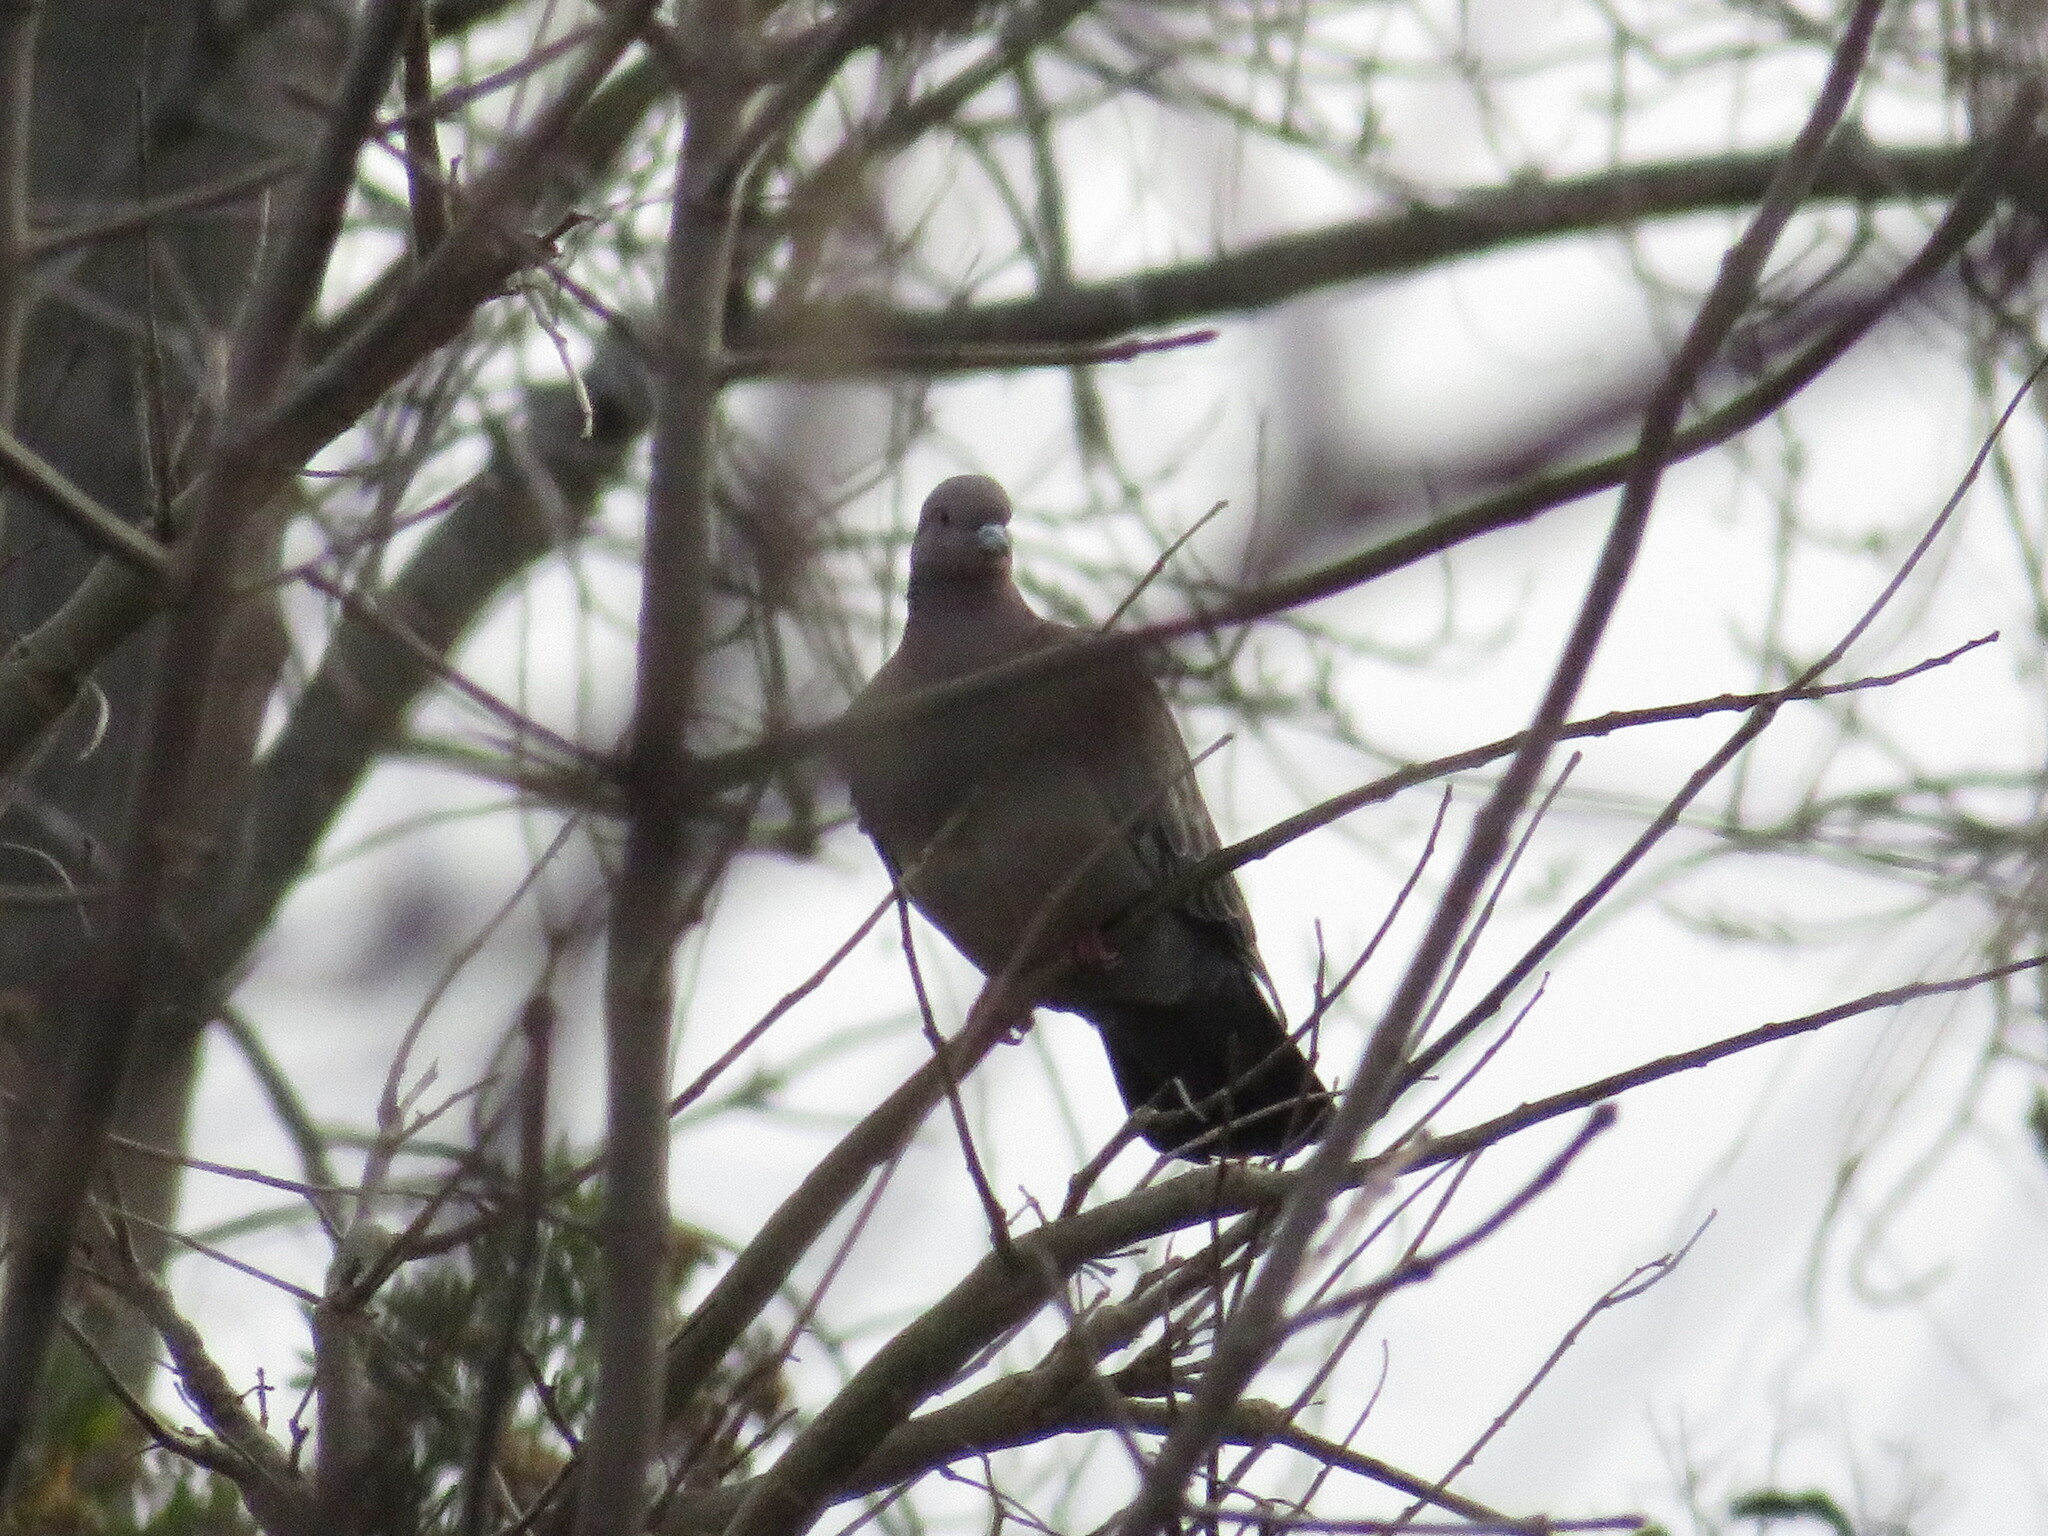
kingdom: Animalia
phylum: Chordata
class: Aves
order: Columbiformes
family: Columbidae
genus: Patagioenas
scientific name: Patagioenas picazuro
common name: Picazuro pigeon
